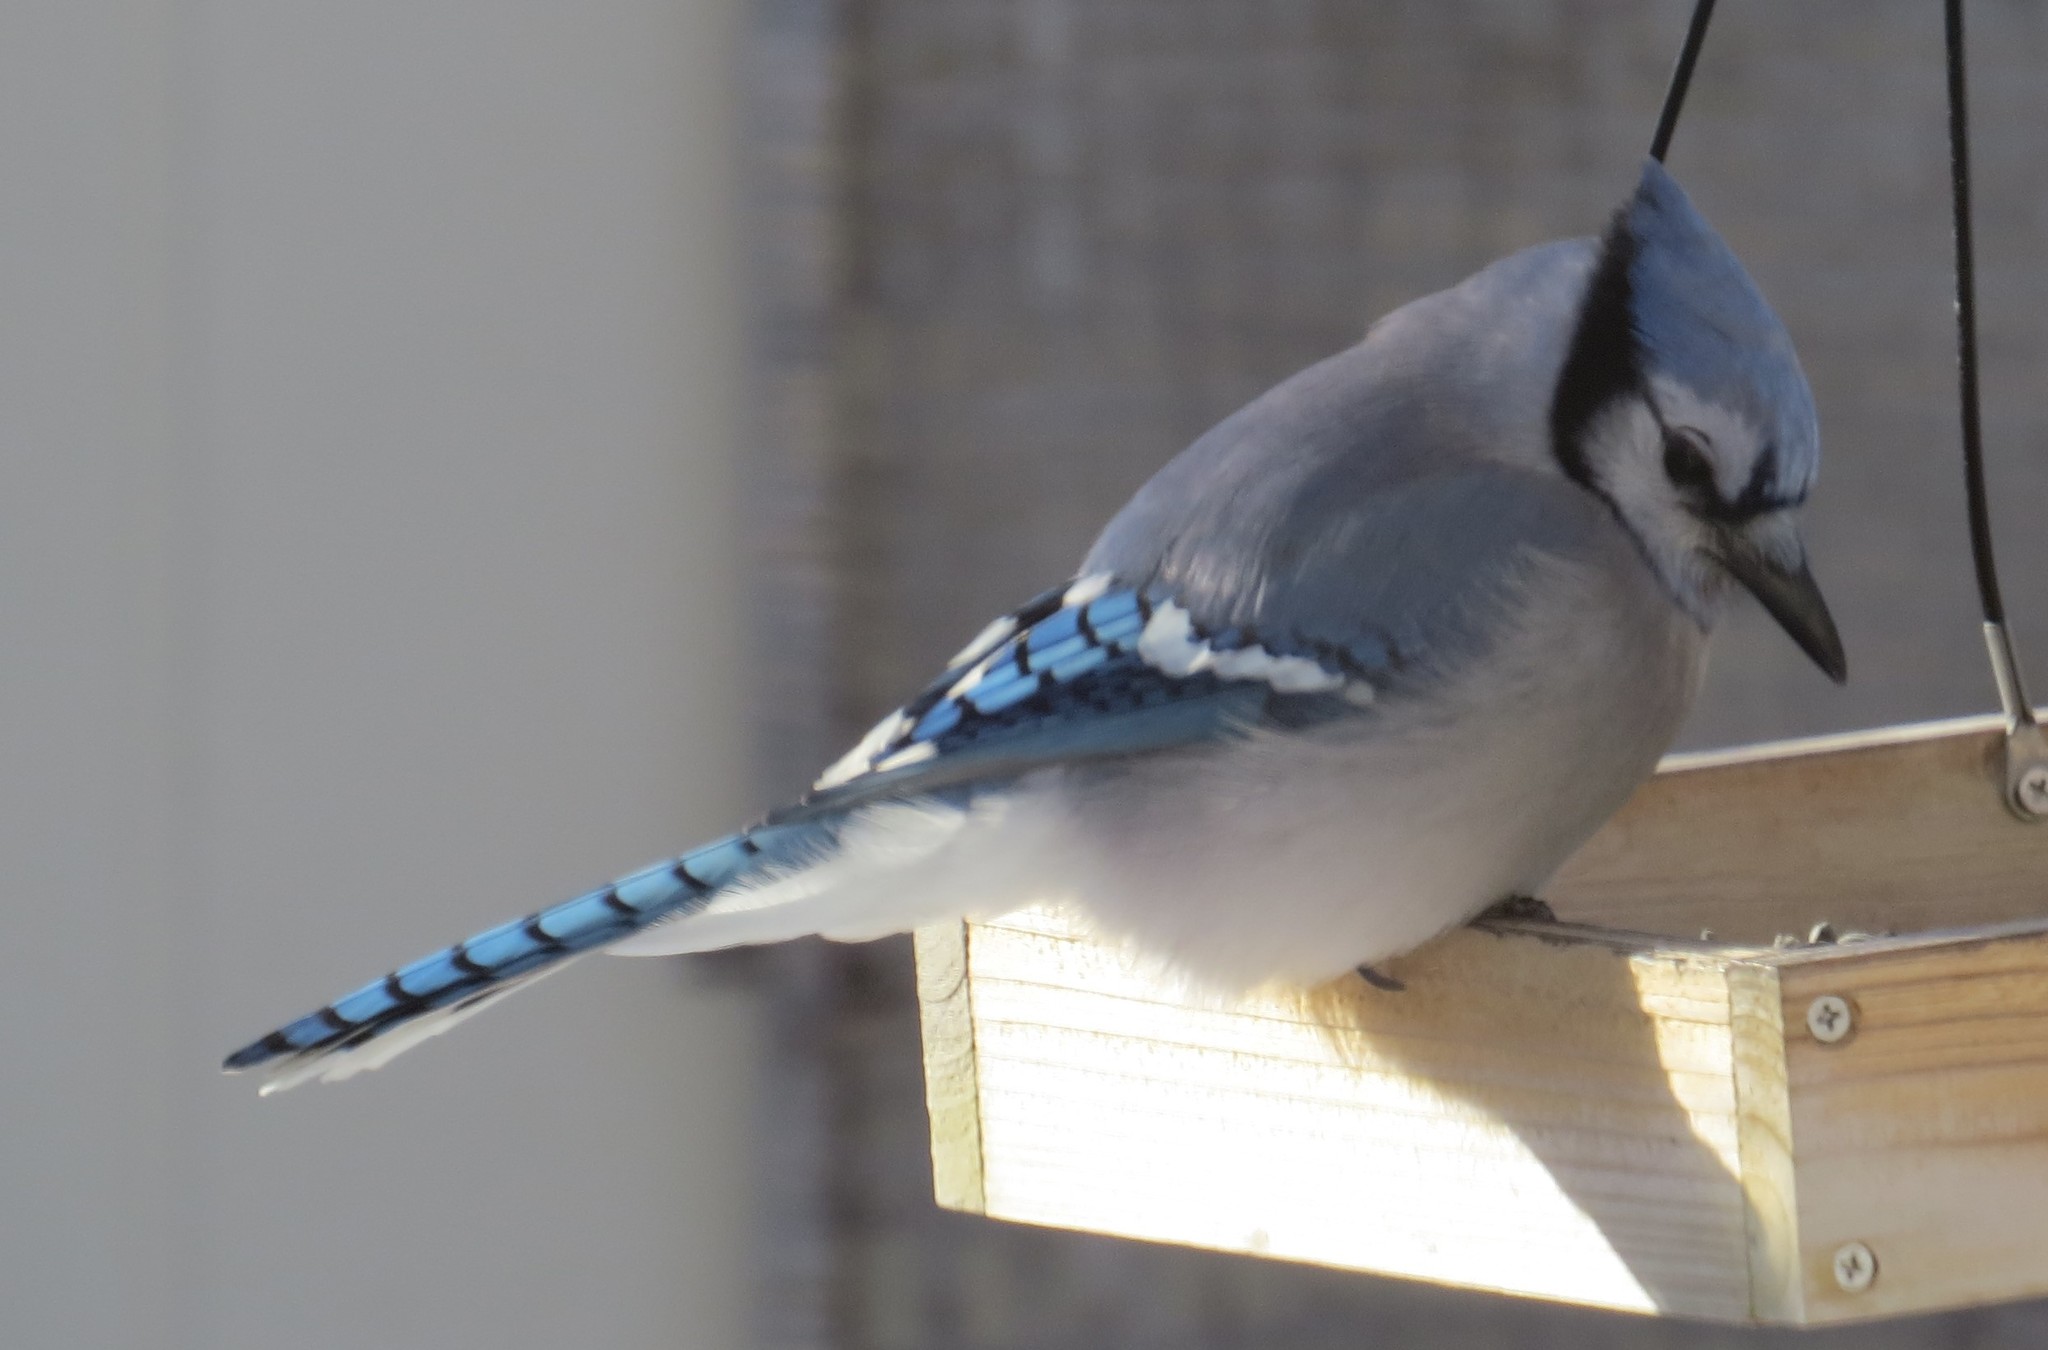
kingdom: Animalia
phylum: Chordata
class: Aves
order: Passeriformes
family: Corvidae
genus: Cyanocitta
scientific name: Cyanocitta cristata
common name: Blue jay
